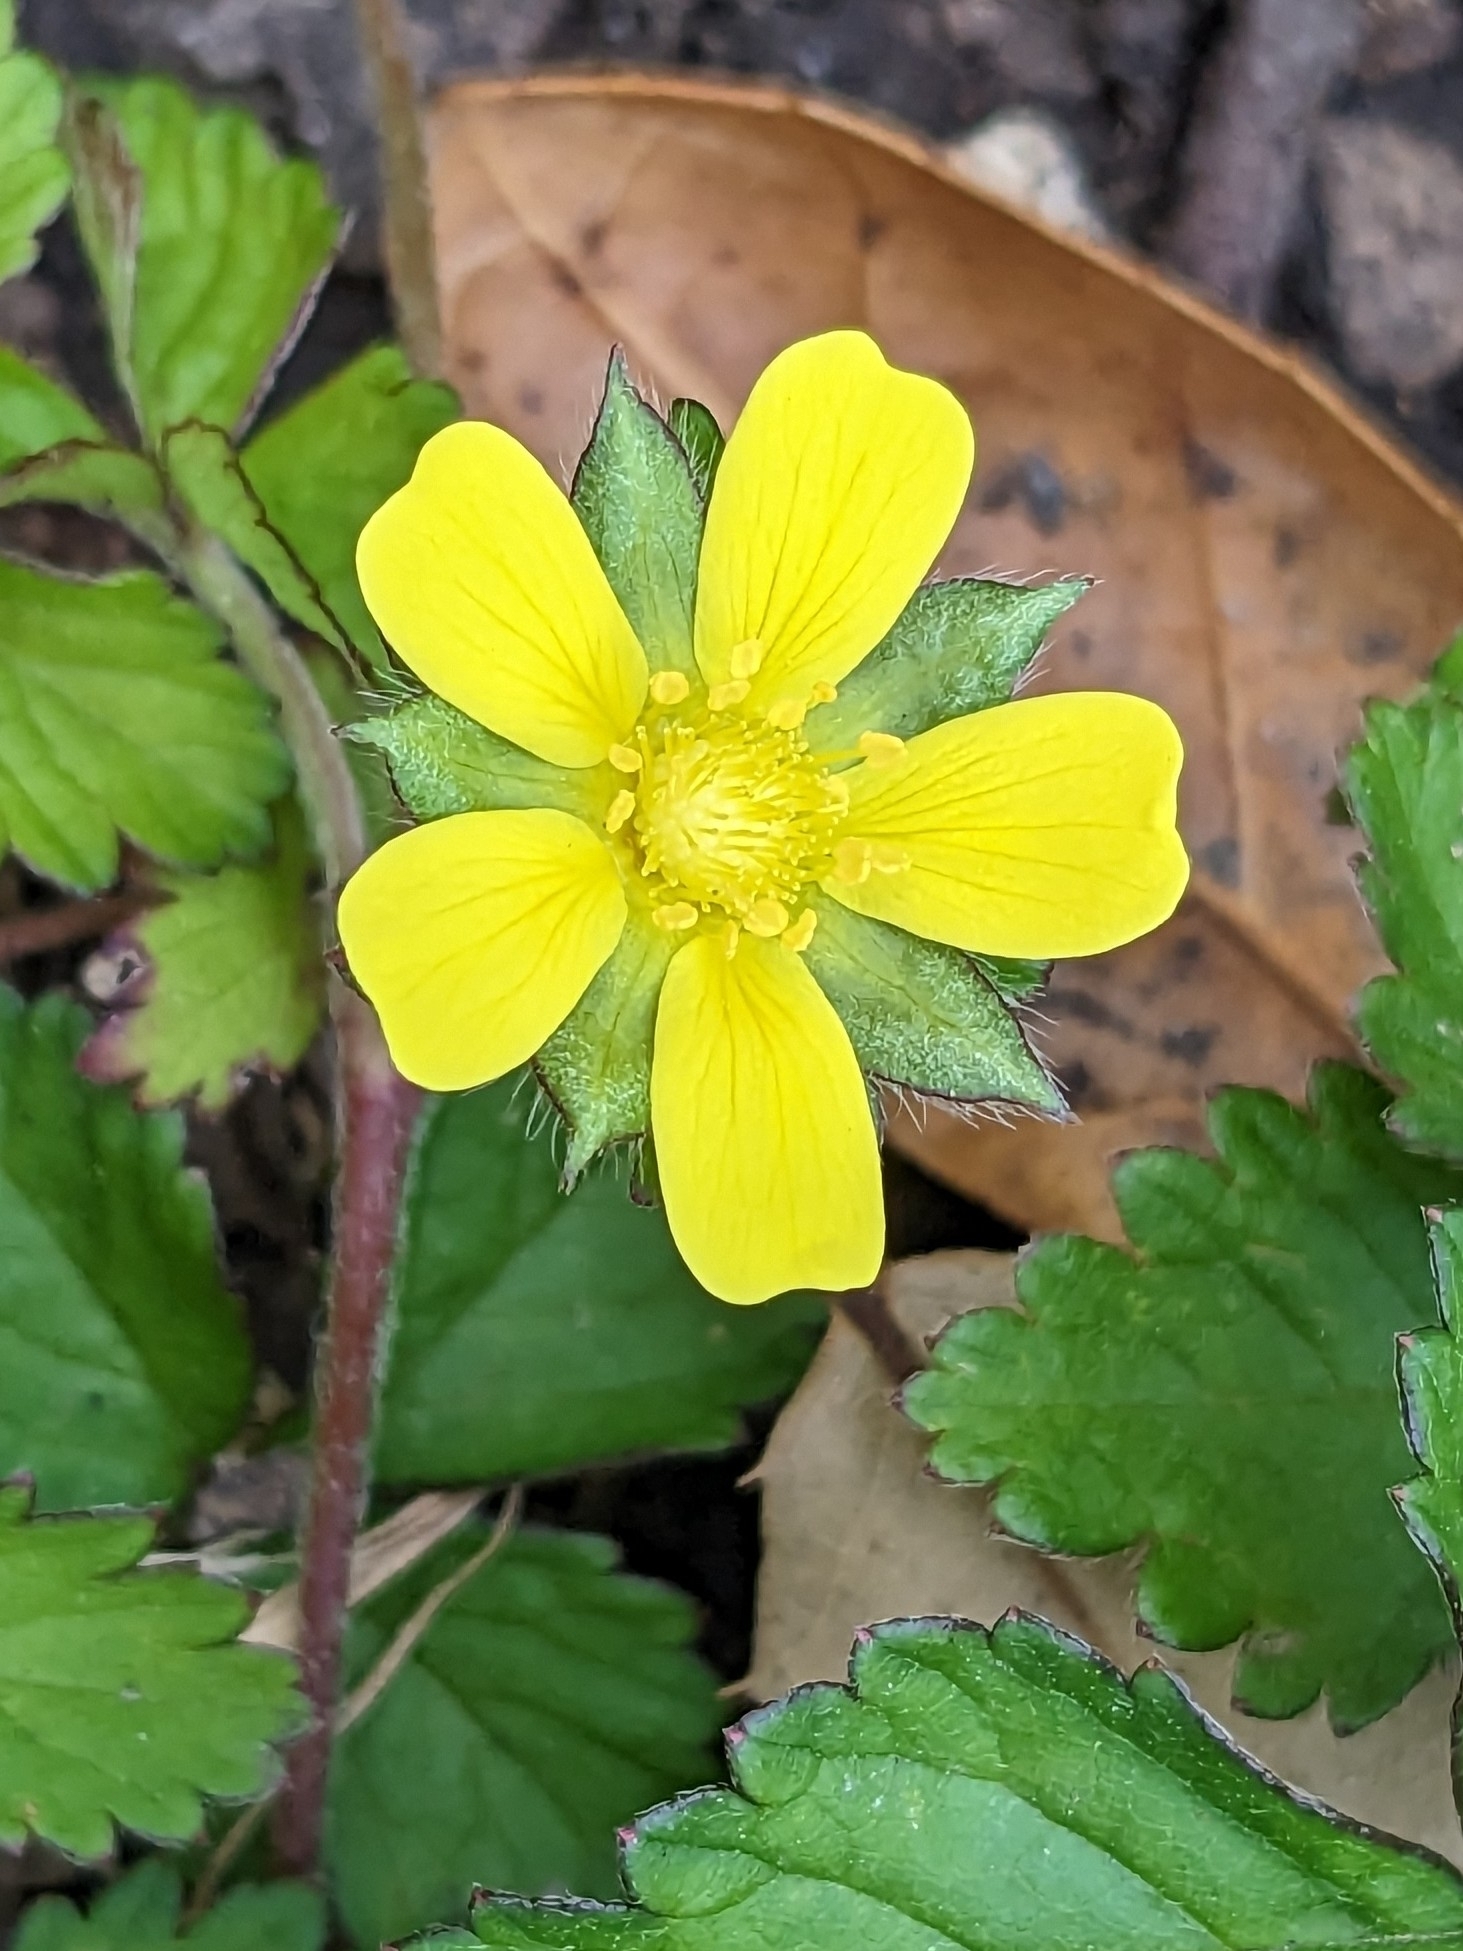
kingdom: Plantae
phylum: Tracheophyta
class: Magnoliopsida
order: Rosales
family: Rosaceae
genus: Potentilla
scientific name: Potentilla indica
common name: Yellow-flowered strawberry
